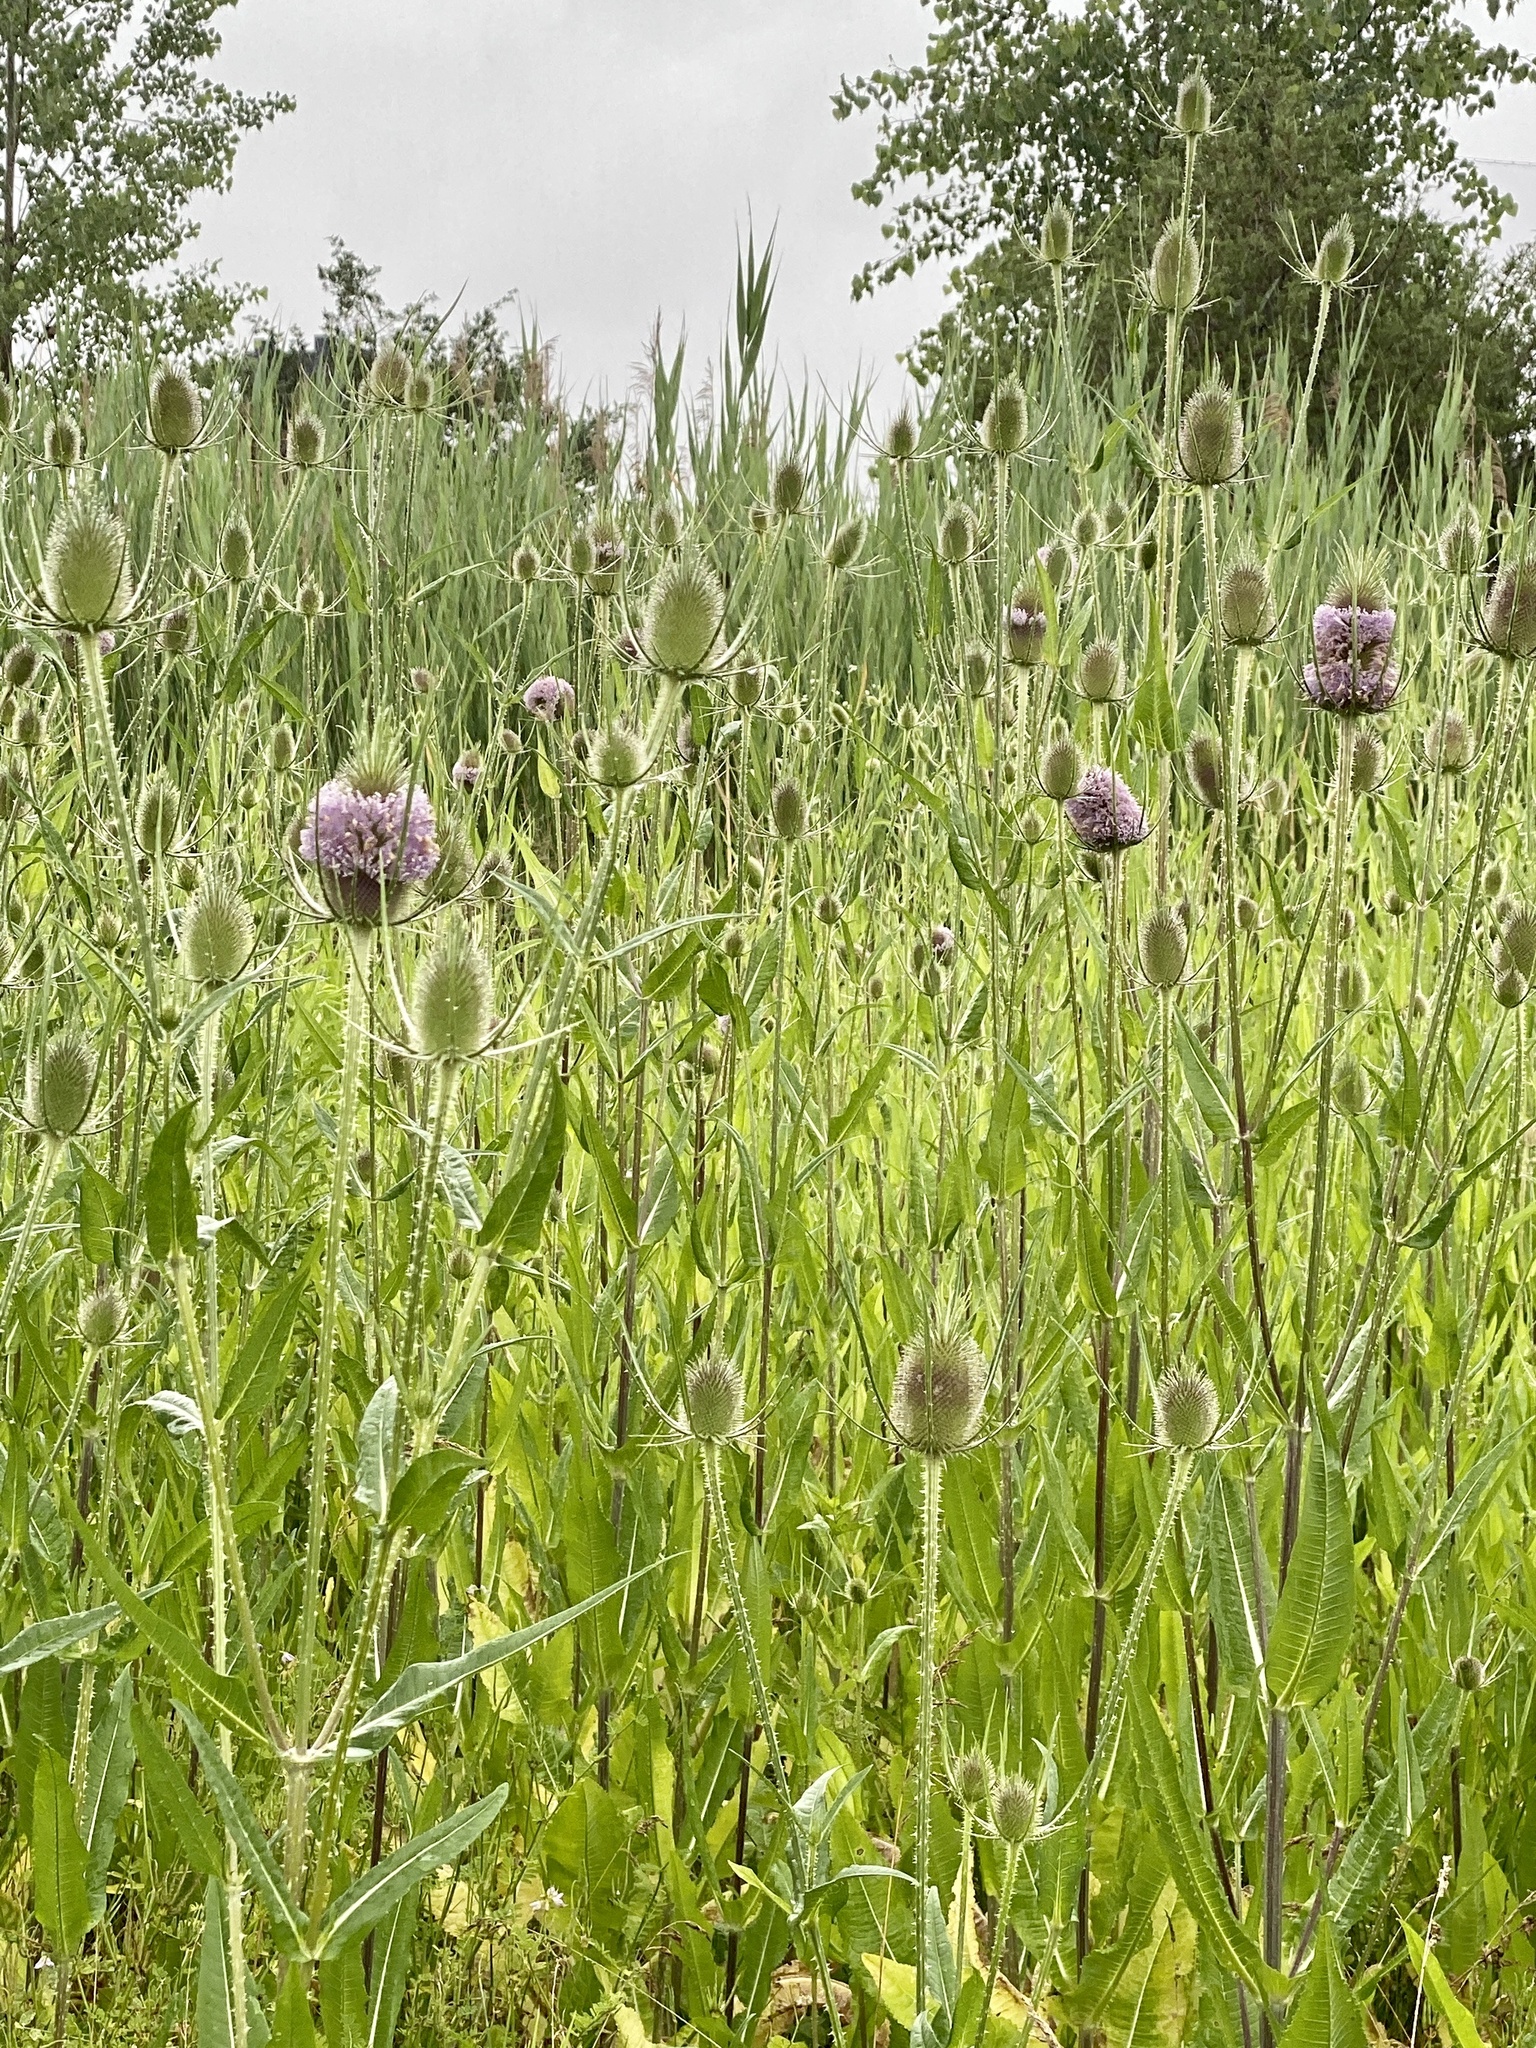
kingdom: Plantae
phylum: Tracheophyta
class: Magnoliopsida
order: Dipsacales
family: Caprifoliaceae
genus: Dipsacus
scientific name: Dipsacus fullonum
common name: Teasel
